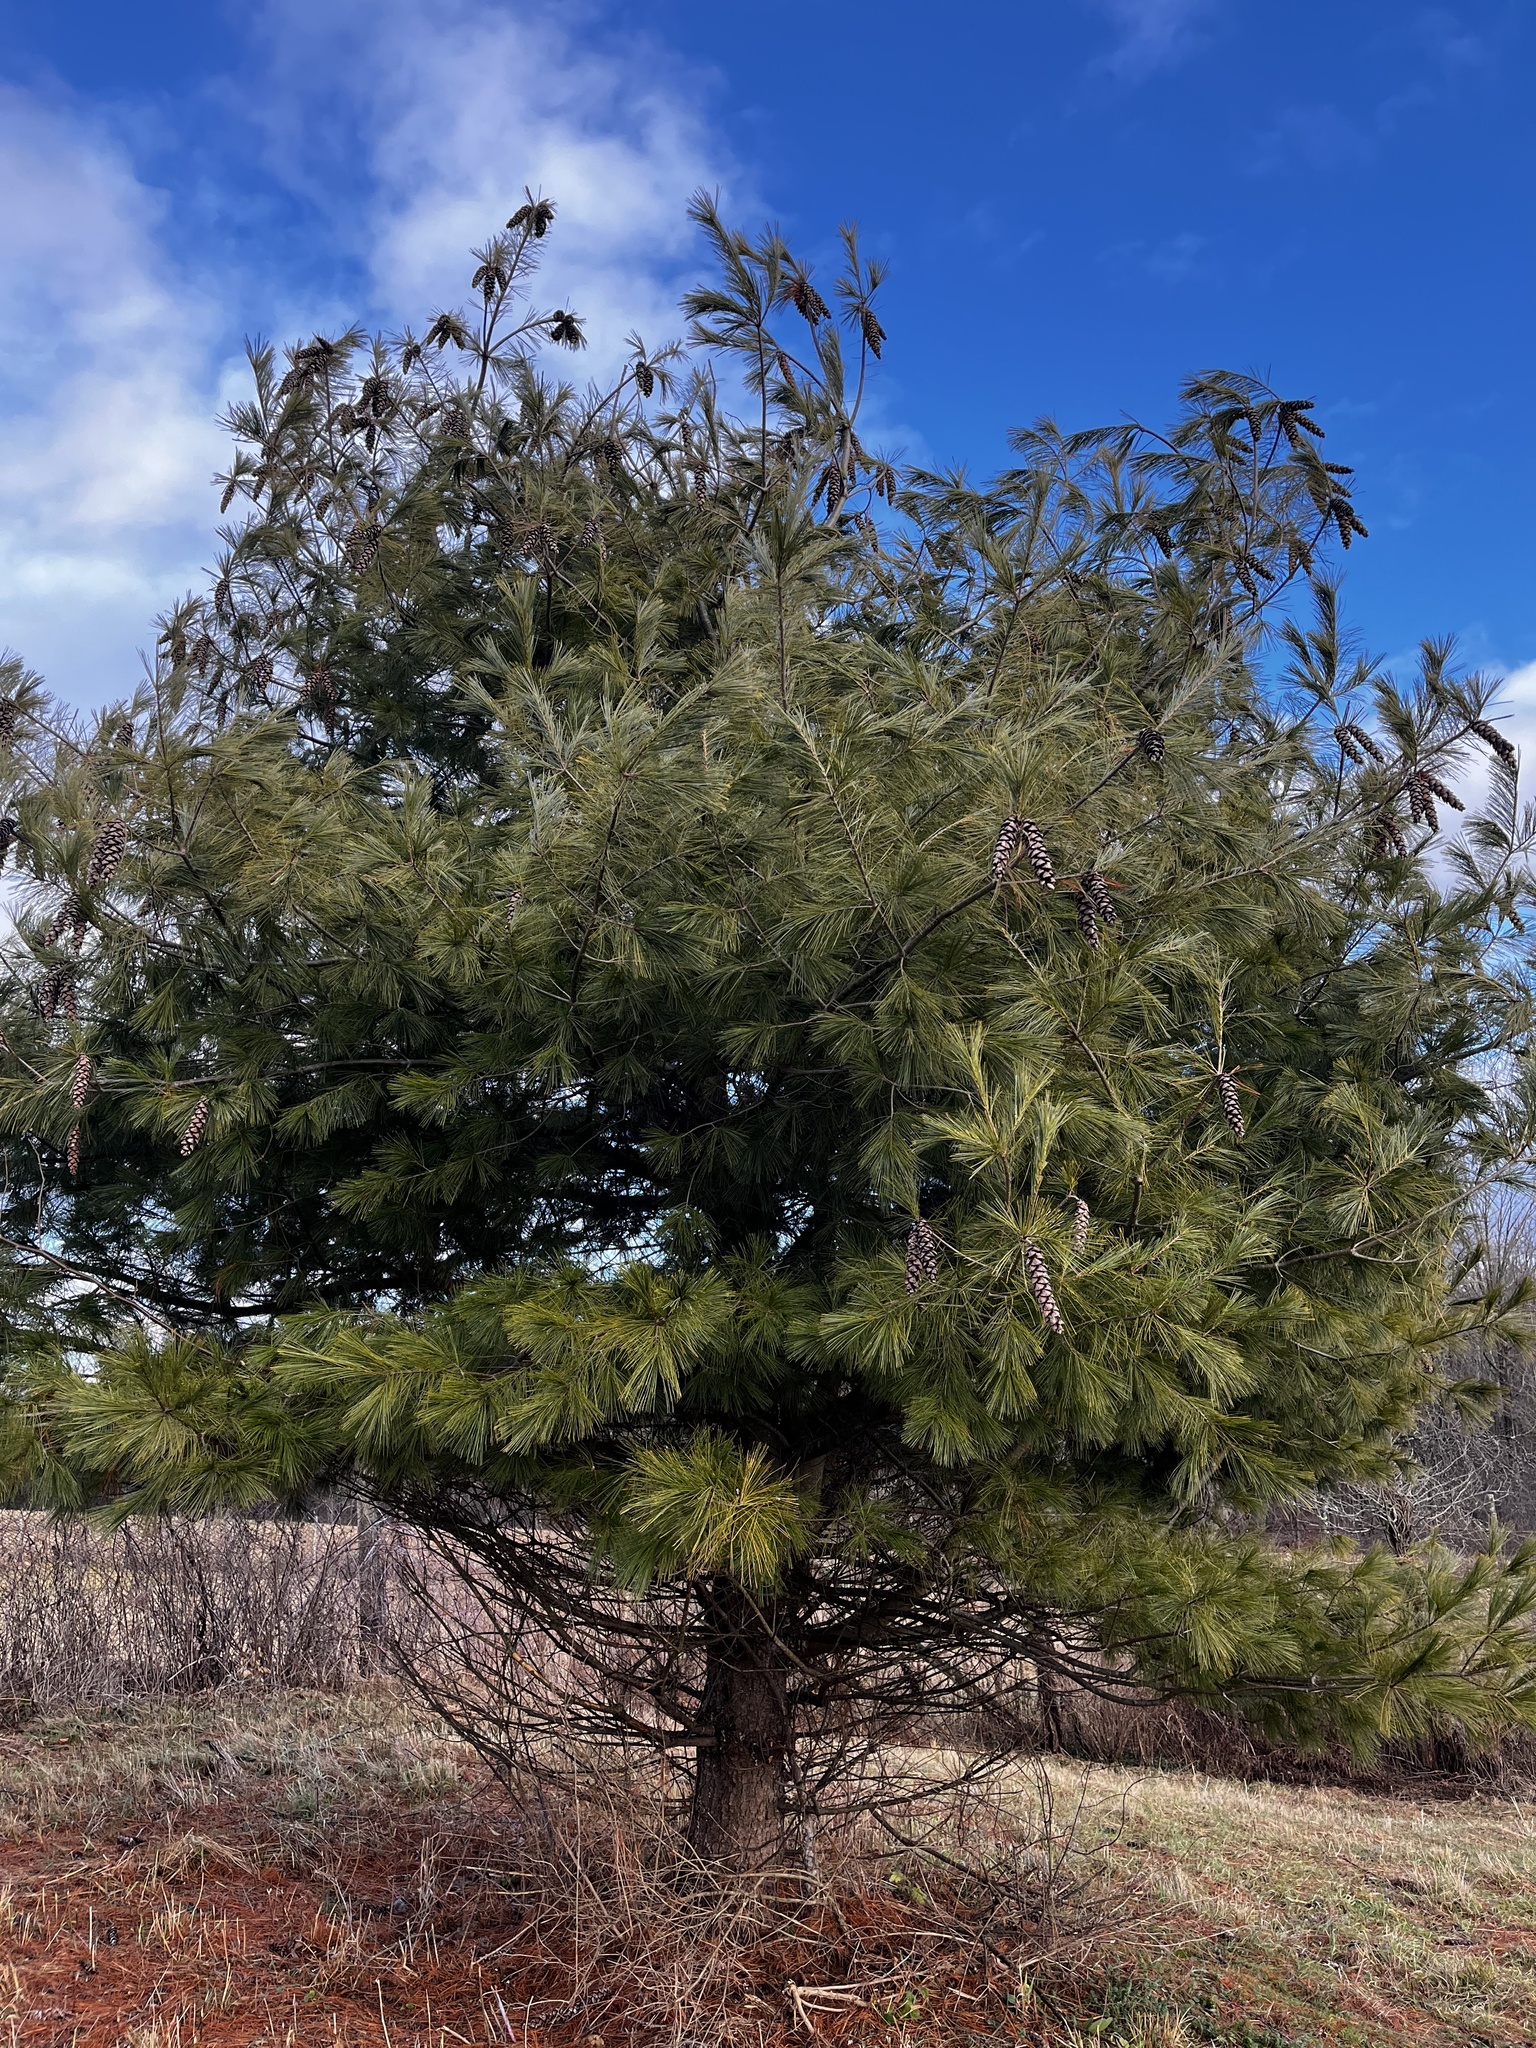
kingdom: Plantae
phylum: Tracheophyta
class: Pinopsida
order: Pinales
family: Pinaceae
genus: Pinus
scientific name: Pinus strobus
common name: Weymouth pine
